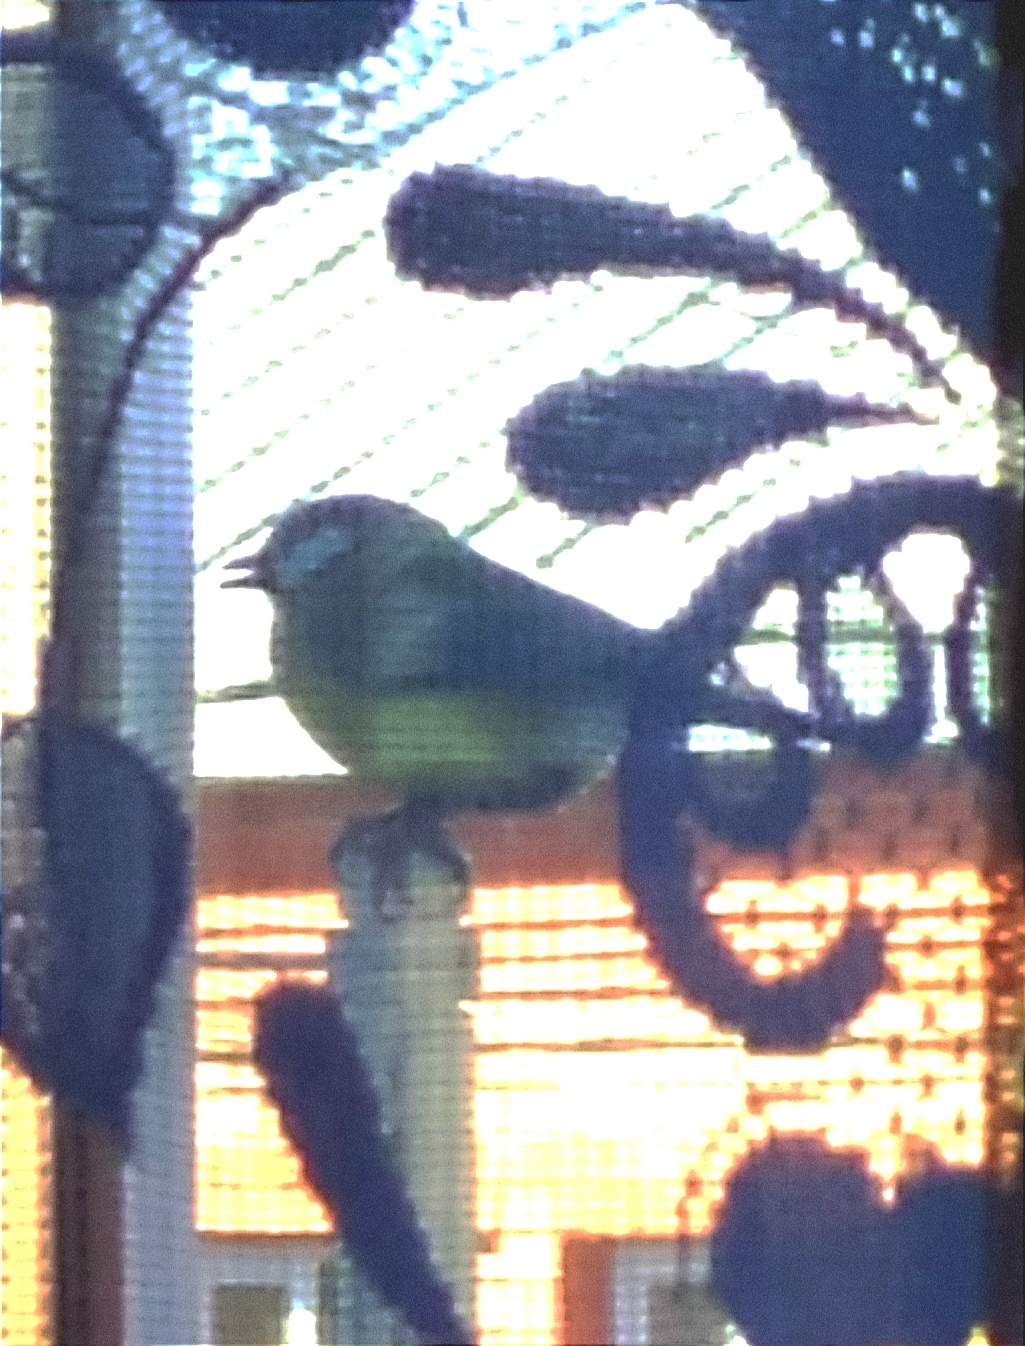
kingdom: Animalia
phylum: Chordata
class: Aves
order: Passeriformes
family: Paridae
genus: Parus
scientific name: Parus major
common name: Great tit
